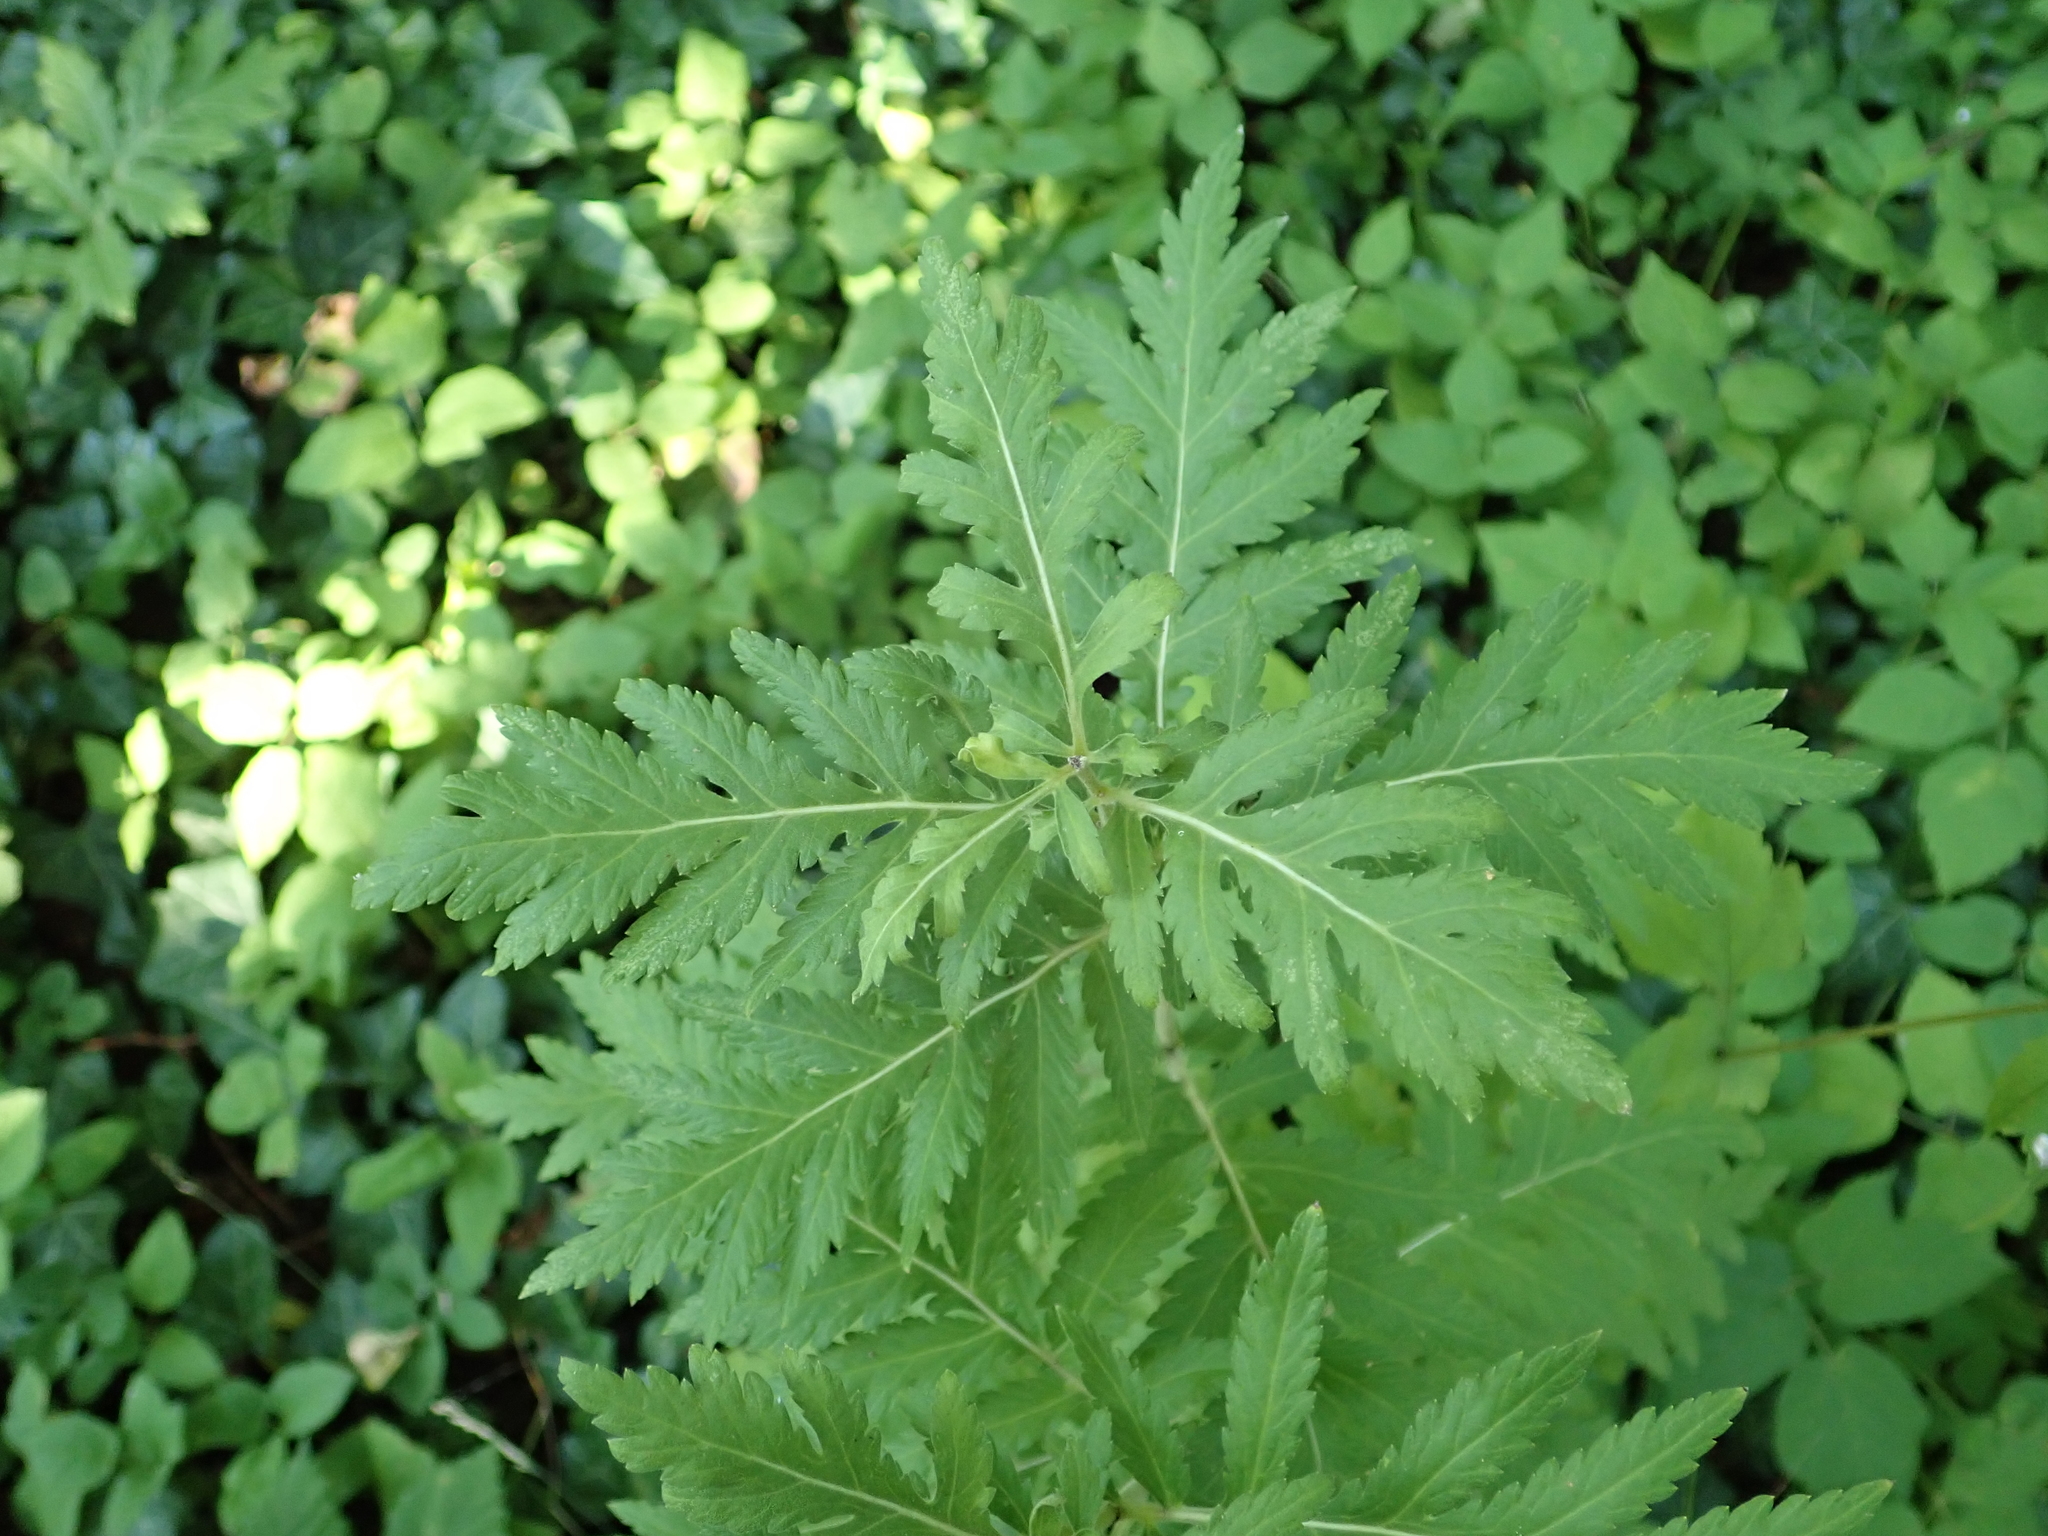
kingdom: Plantae
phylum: Tracheophyta
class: Magnoliopsida
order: Asterales
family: Asteraceae
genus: Tanacetum
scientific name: Tanacetum vulgare
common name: Common tansy
